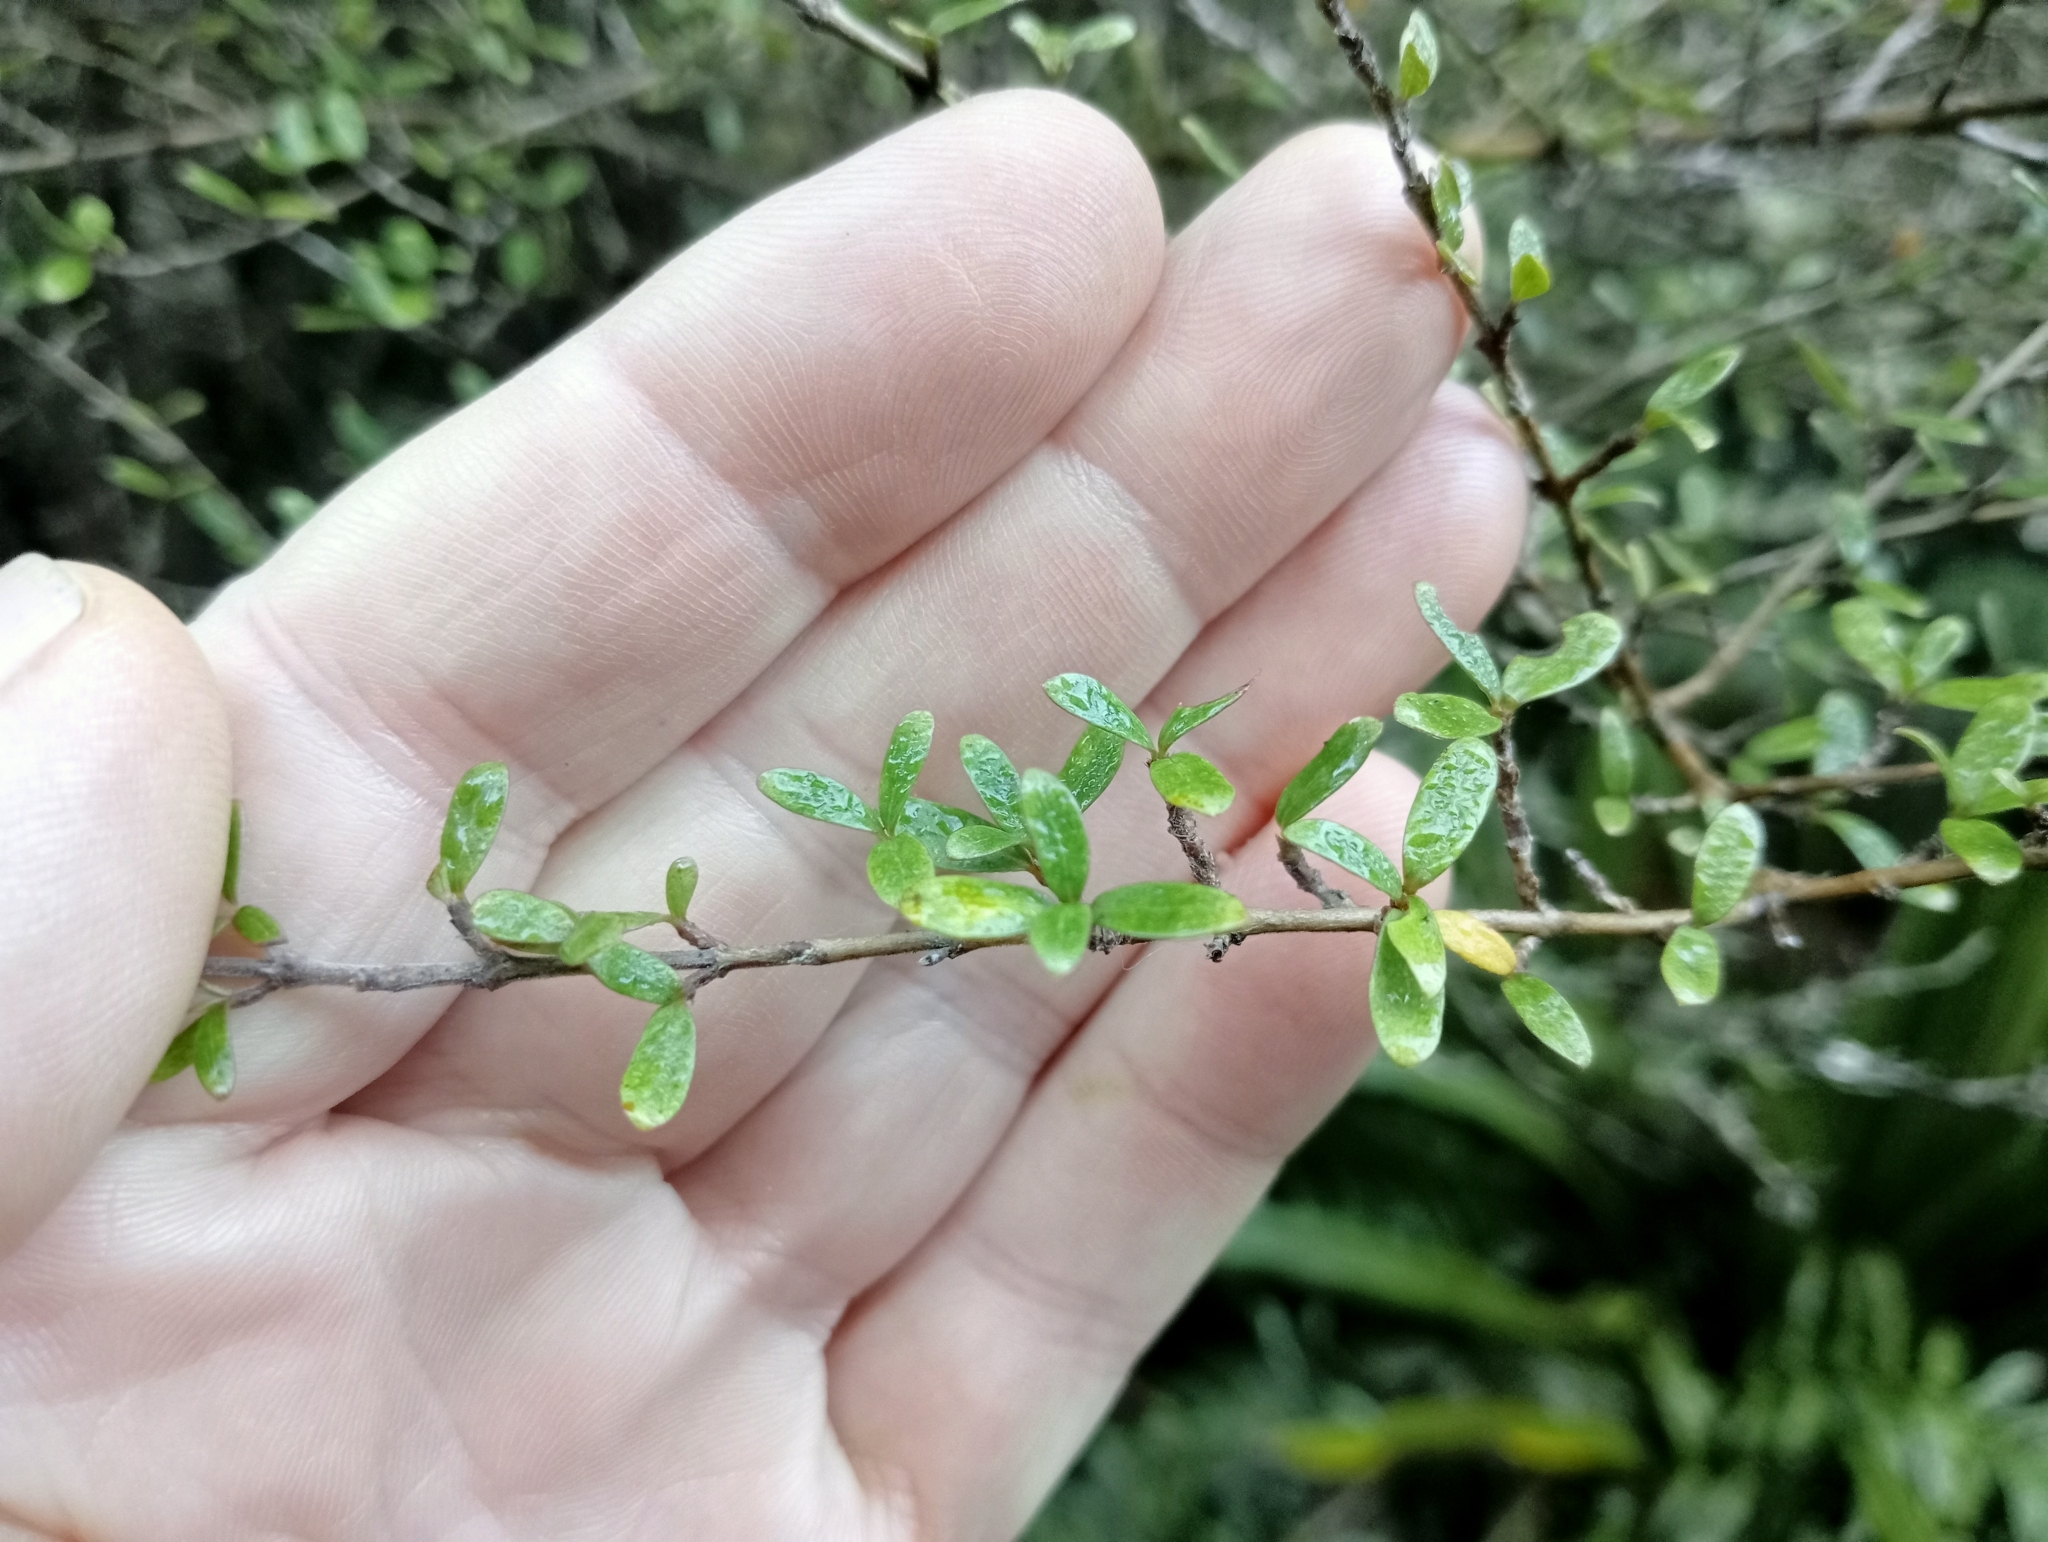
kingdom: Plantae
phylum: Tracheophyta
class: Magnoliopsida
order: Gentianales
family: Rubiaceae
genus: Coprosma
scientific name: Coprosma dumosa
